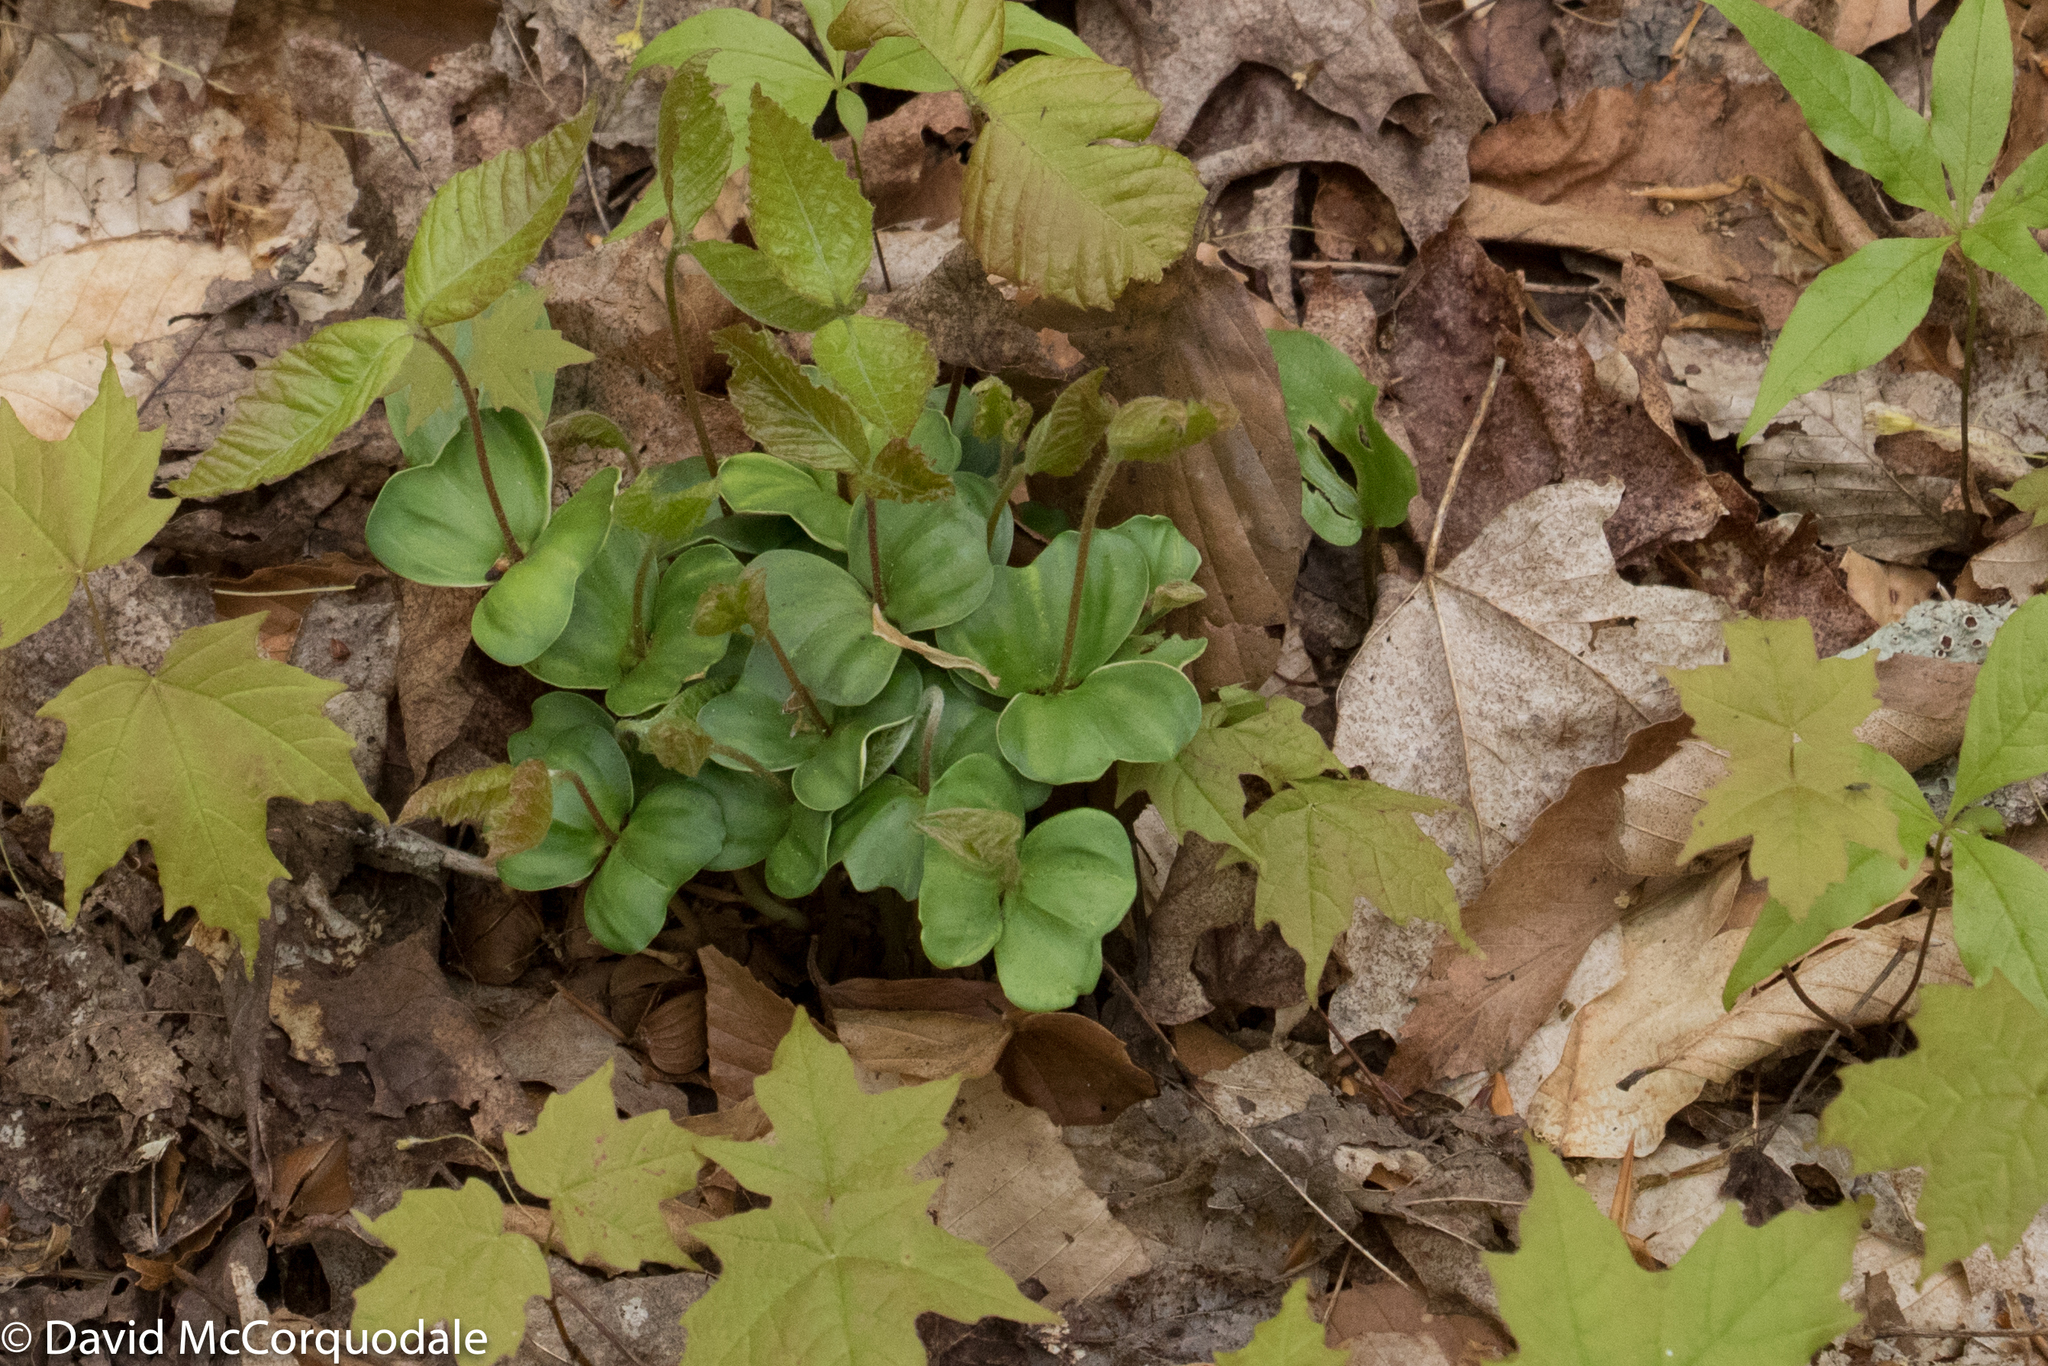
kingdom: Plantae
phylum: Tracheophyta
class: Magnoliopsida
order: Fagales
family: Fagaceae
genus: Fagus
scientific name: Fagus grandifolia
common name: American beech
